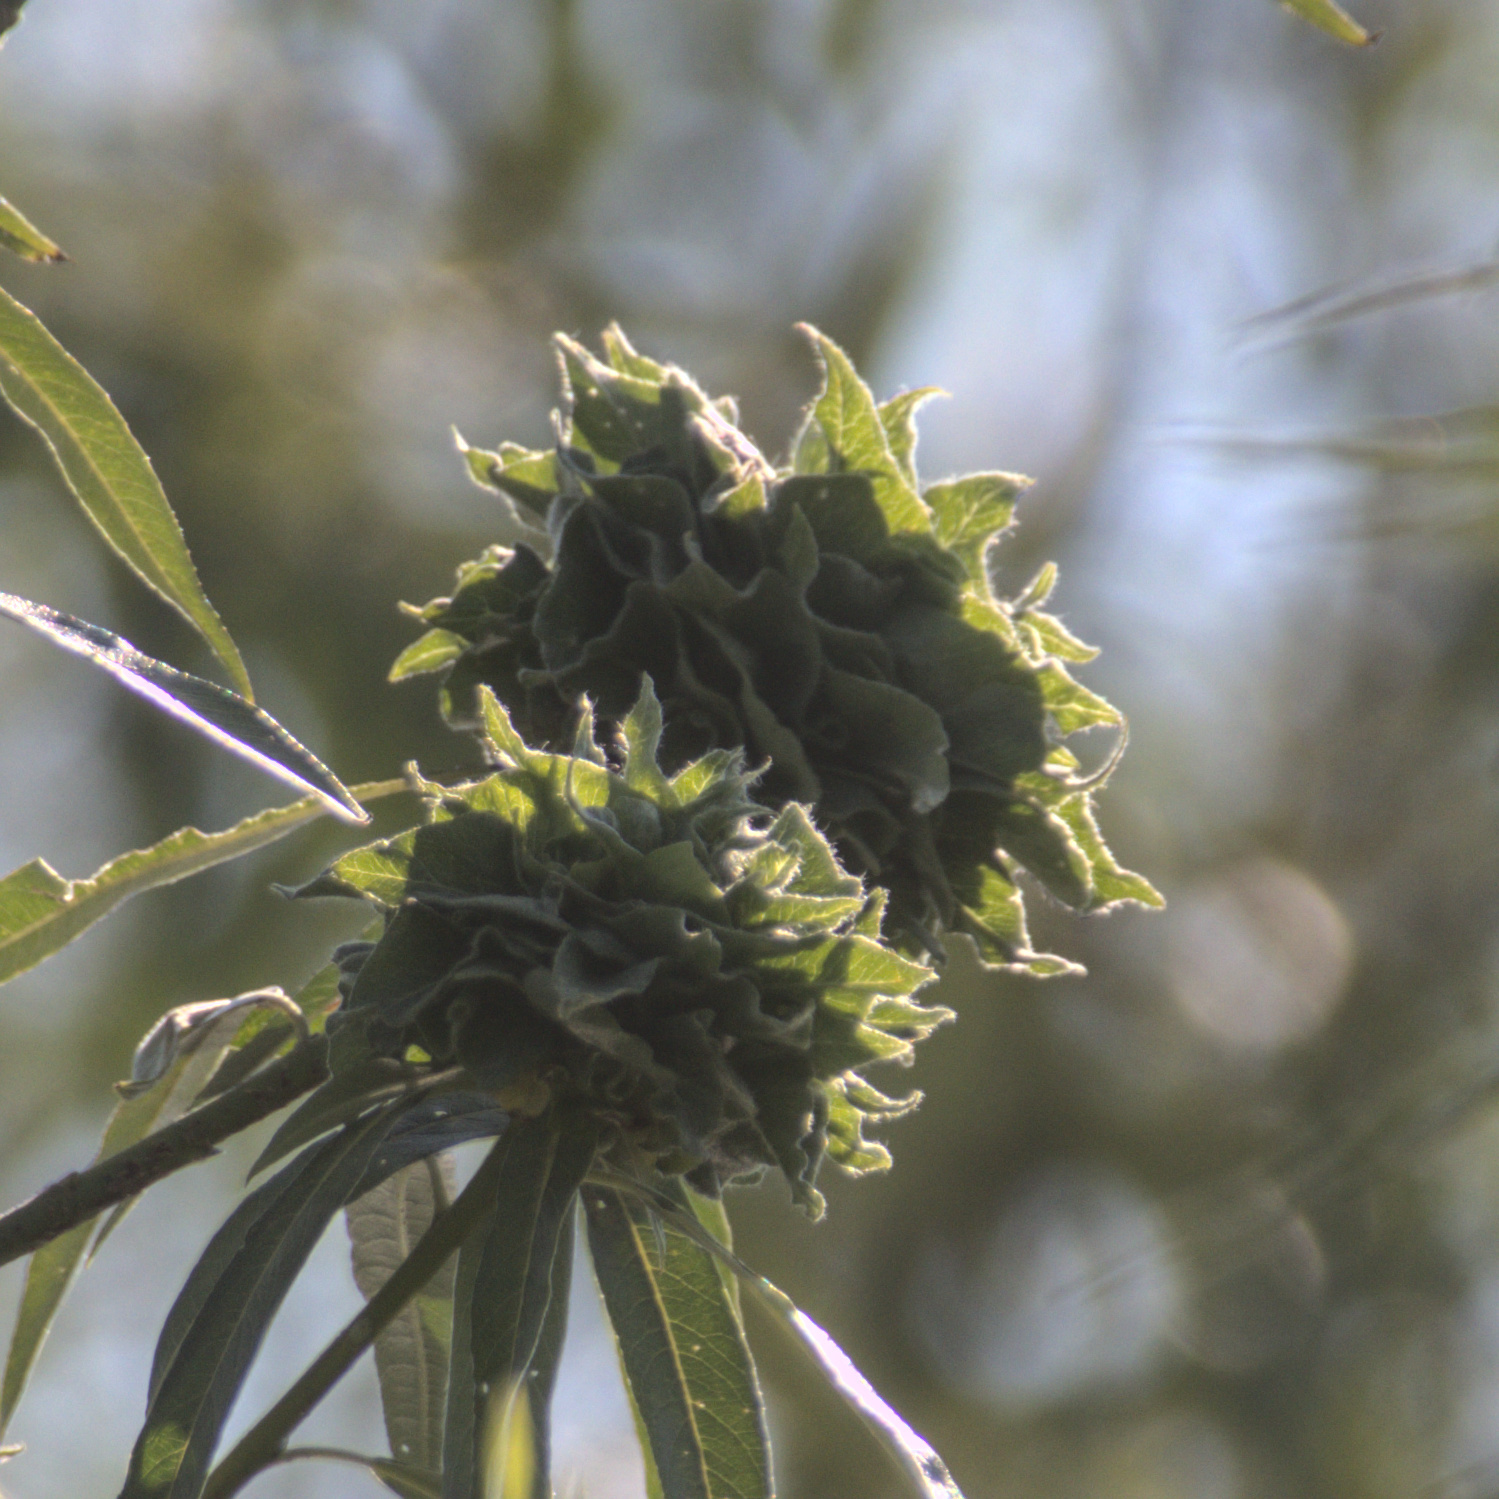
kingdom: Animalia
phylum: Arthropoda
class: Insecta
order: Diptera
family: Cecidomyiidae
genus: Rabdophaga
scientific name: Rabdophaga rosaria
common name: Willow rose gall midge
